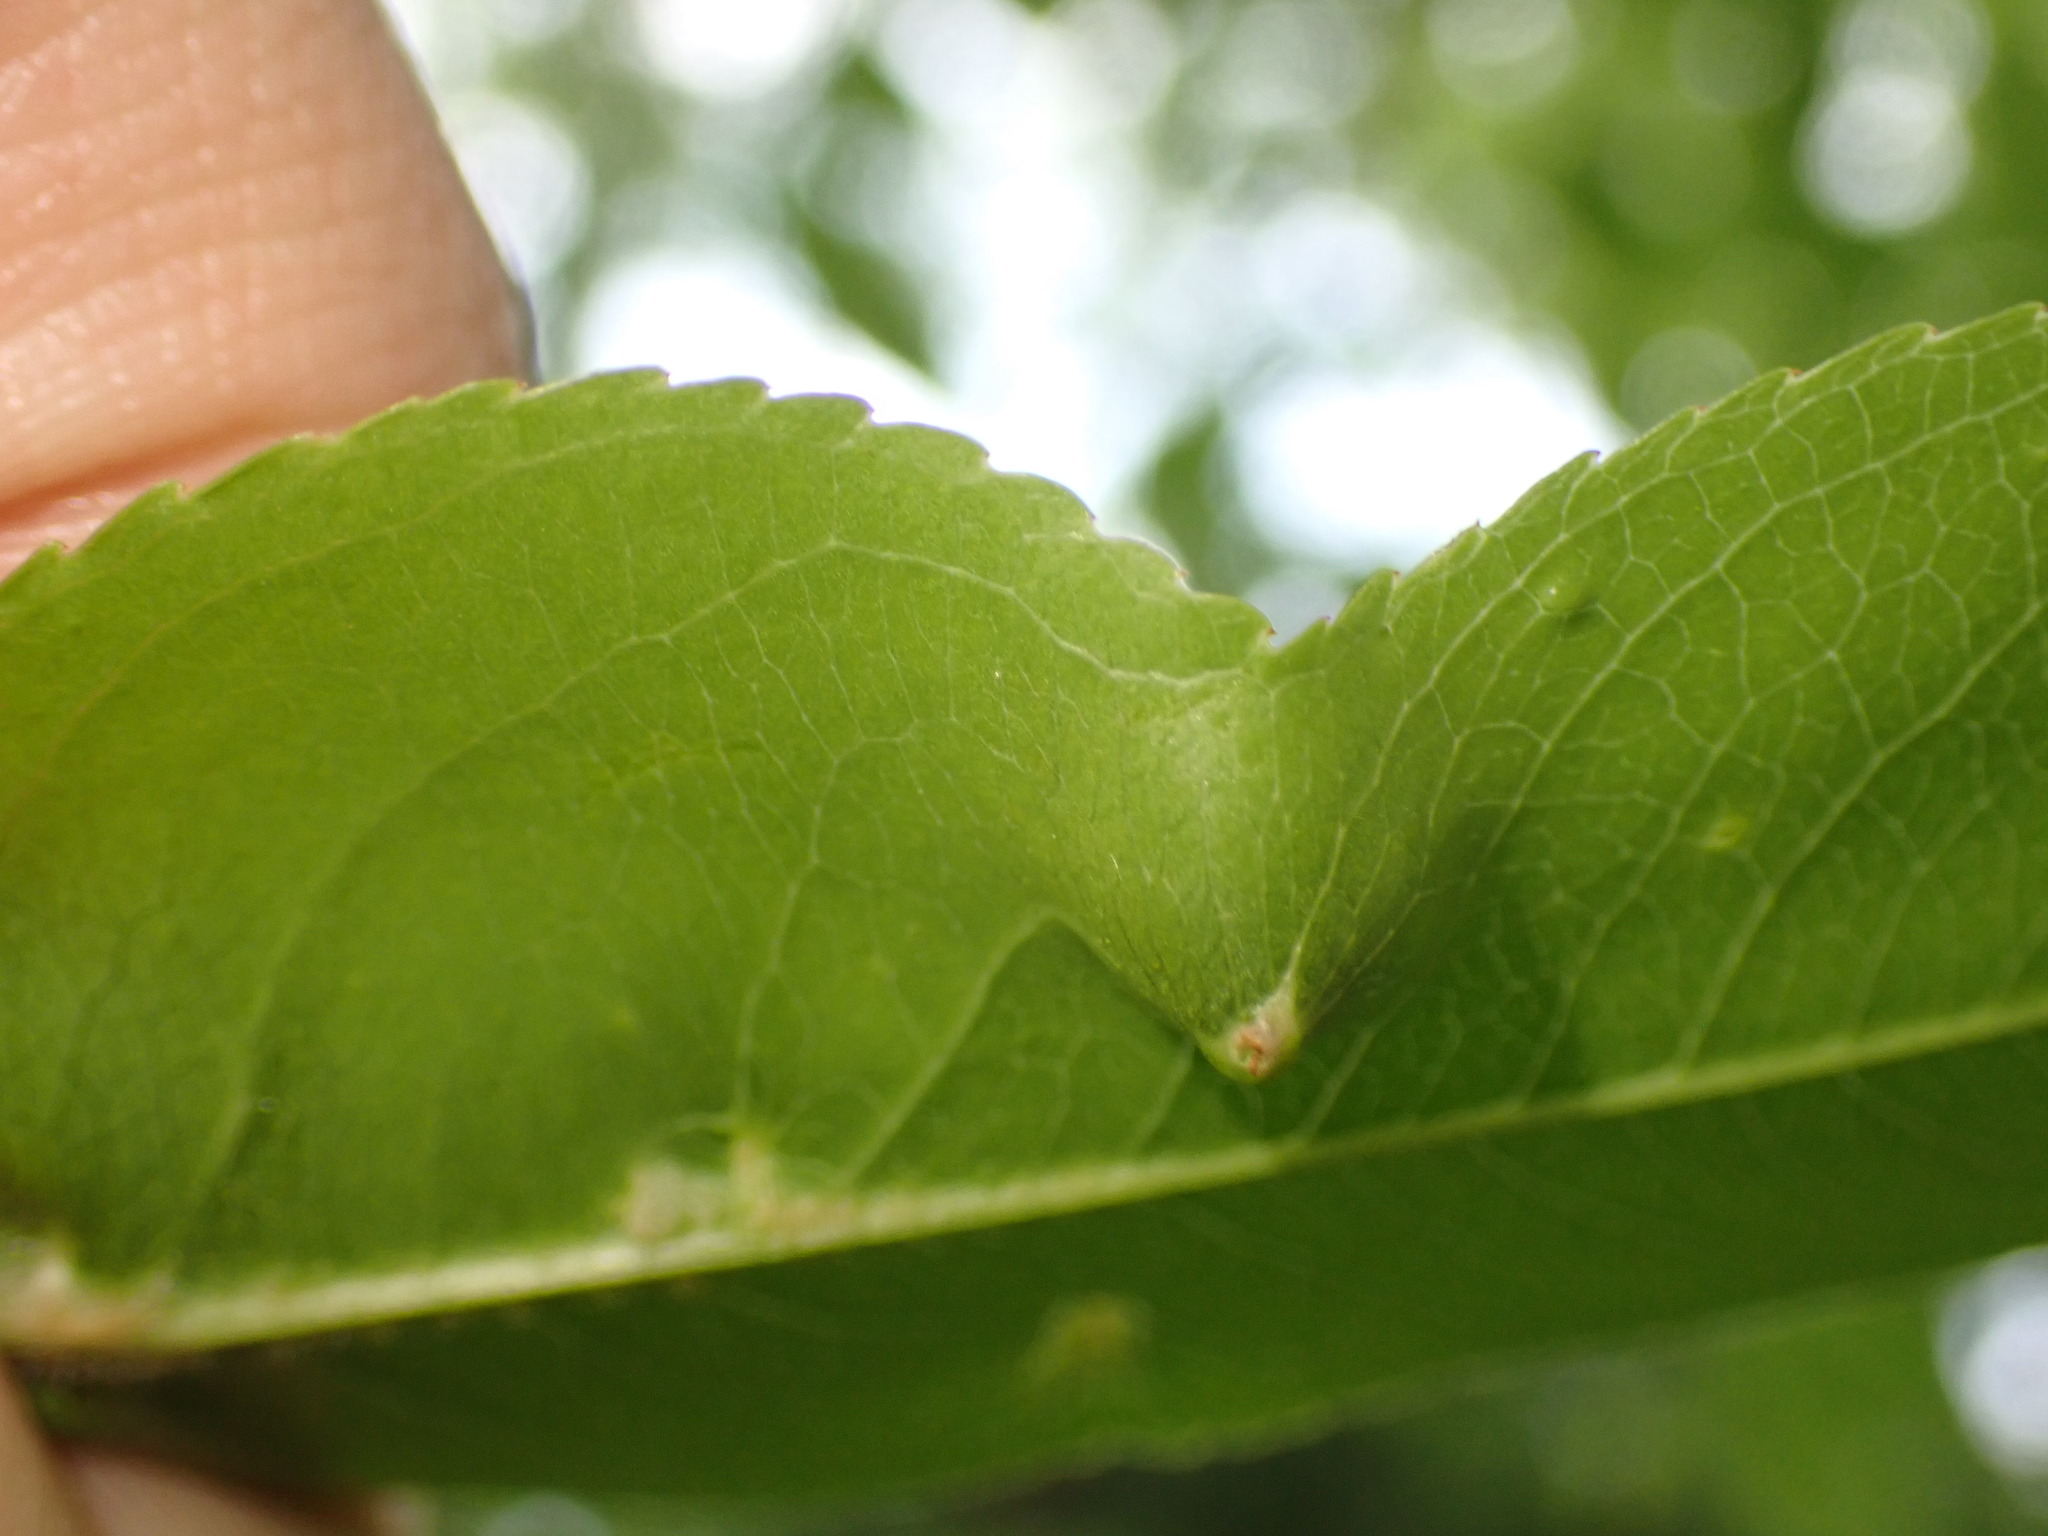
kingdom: Animalia
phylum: Arthropoda
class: Arachnida
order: Trombidiformes
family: Eriophyidae
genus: Eriophyes
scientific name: Eriophyes
